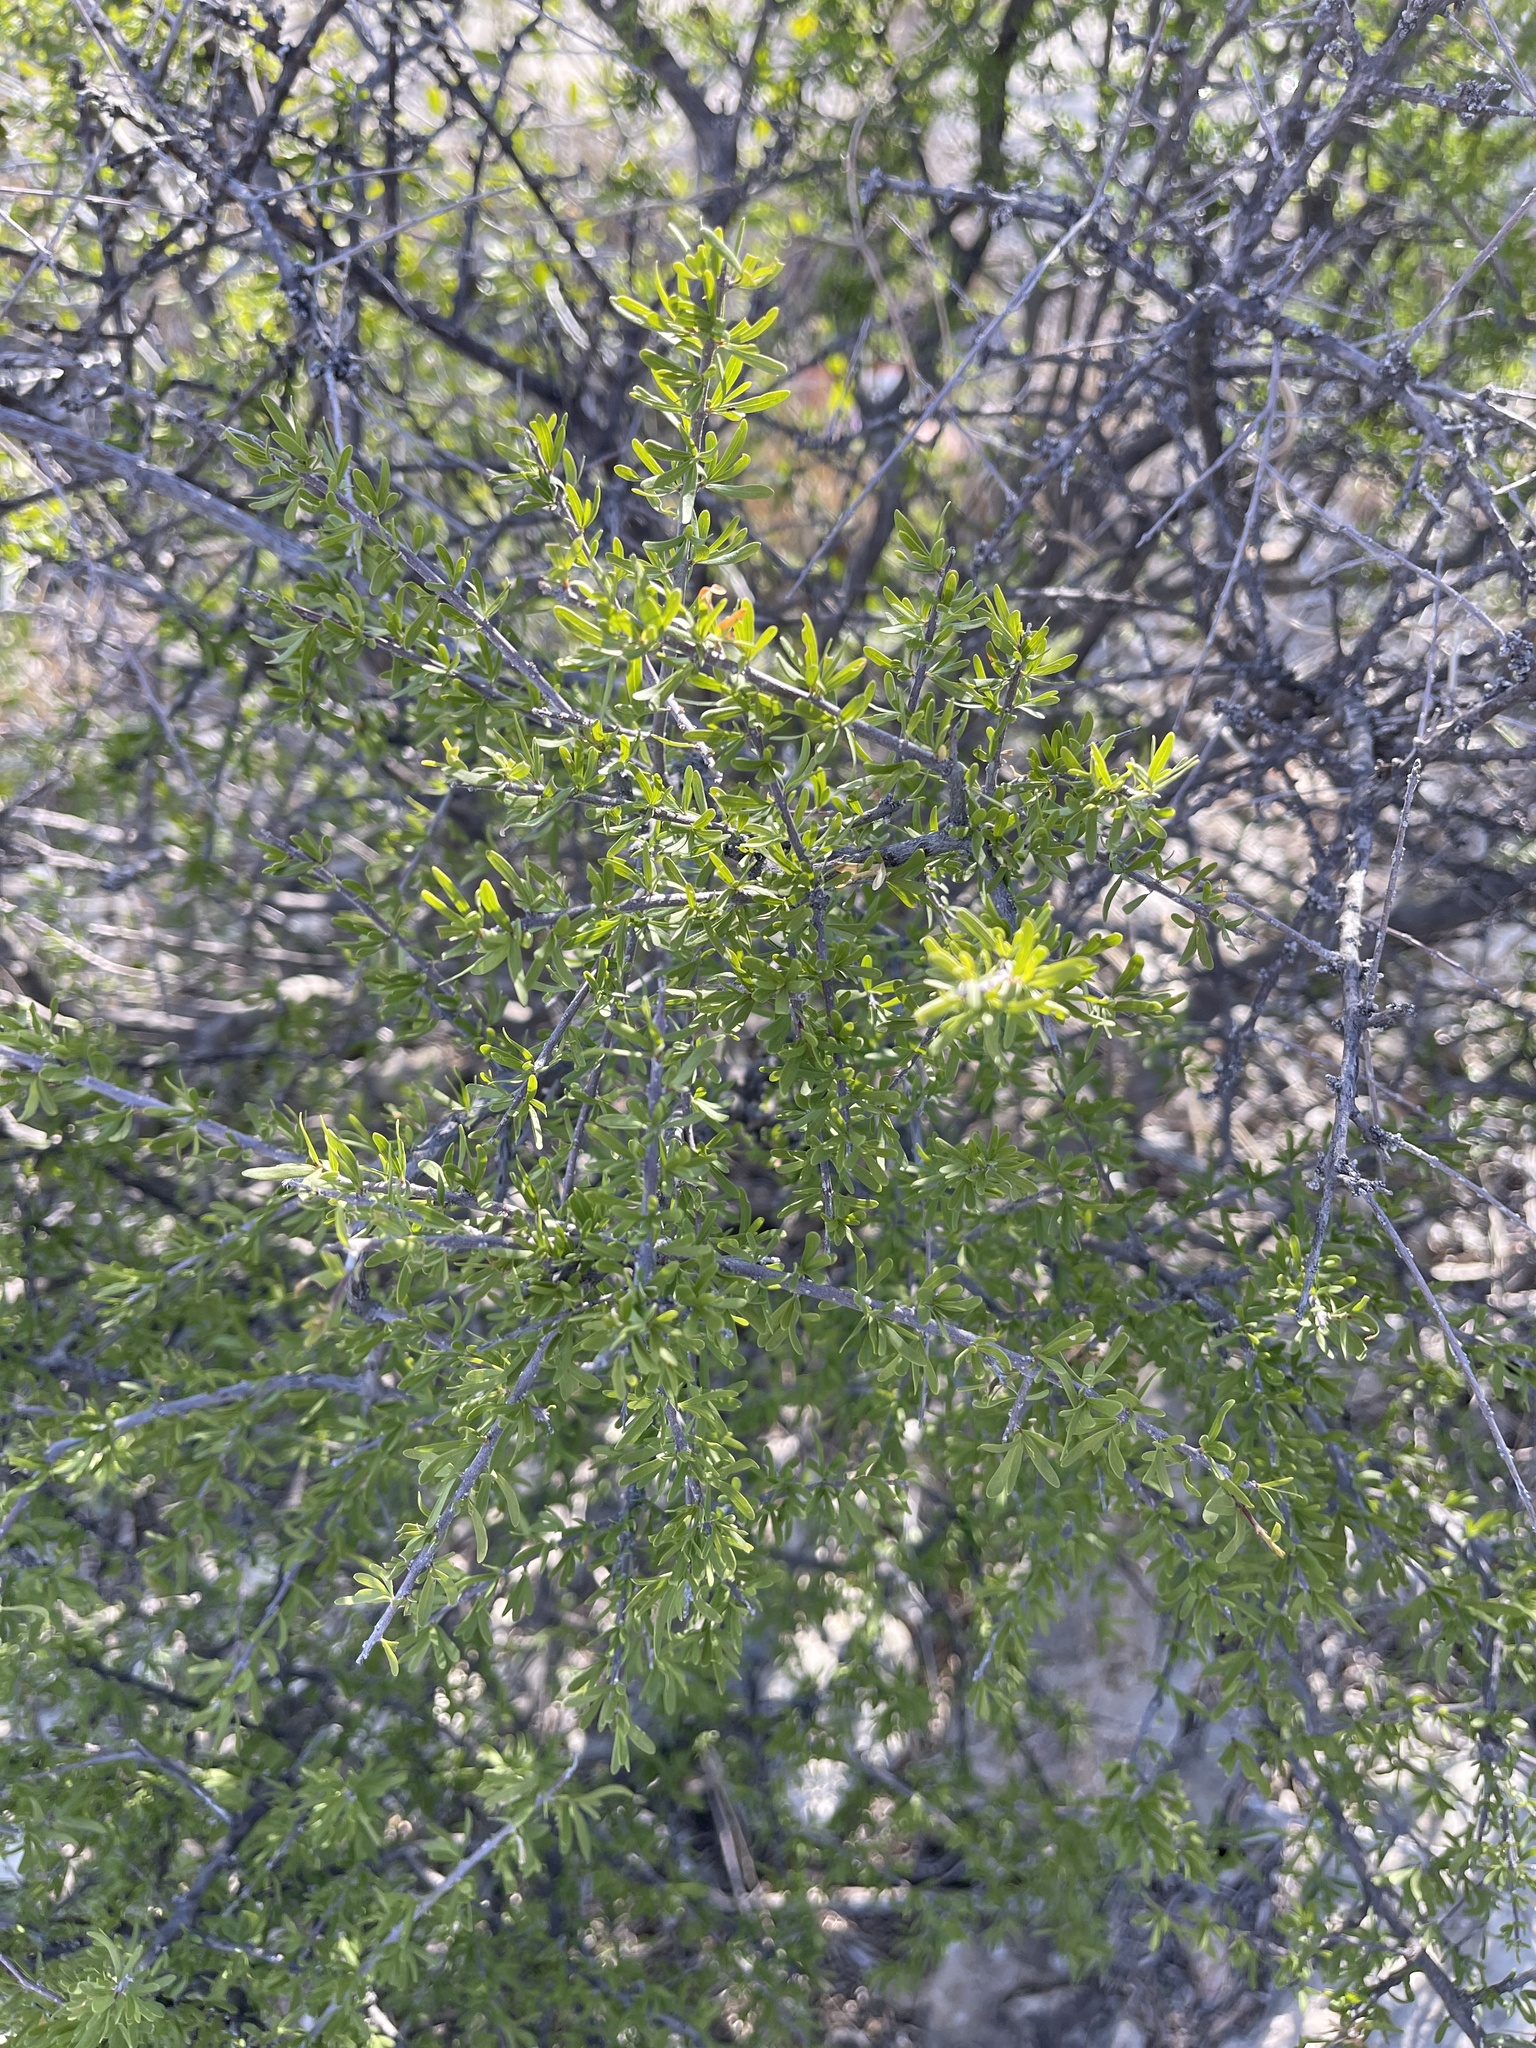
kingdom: Plantae
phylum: Tracheophyta
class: Magnoliopsida
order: Lamiales
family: Oleaceae
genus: Forestiera
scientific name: Forestiera angustifolia
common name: Elbowbush
